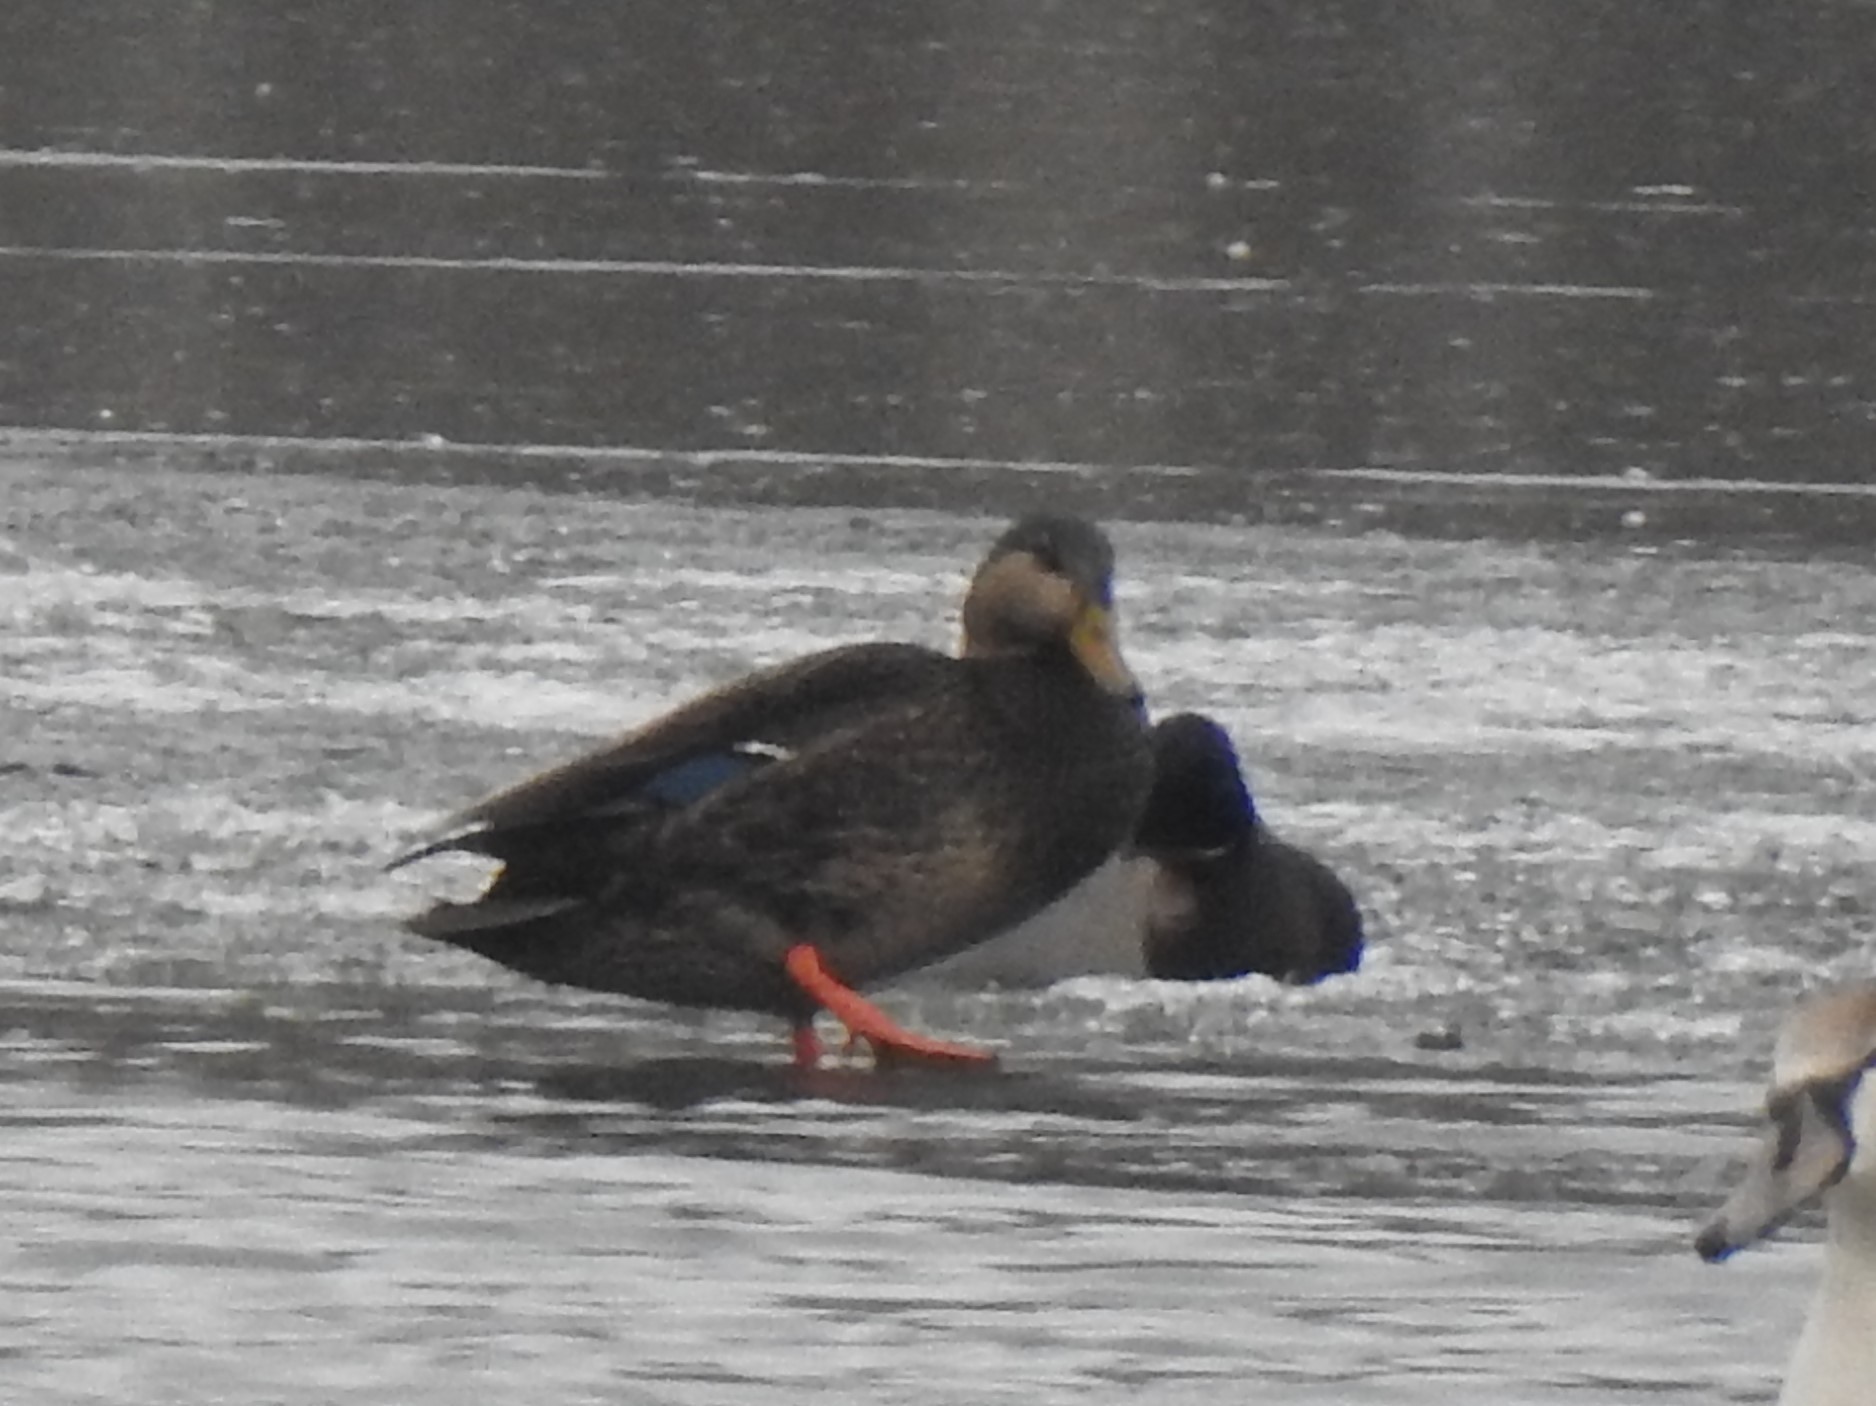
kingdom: Animalia
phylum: Chordata
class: Aves
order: Anseriformes
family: Anatidae
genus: Anas
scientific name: Anas
